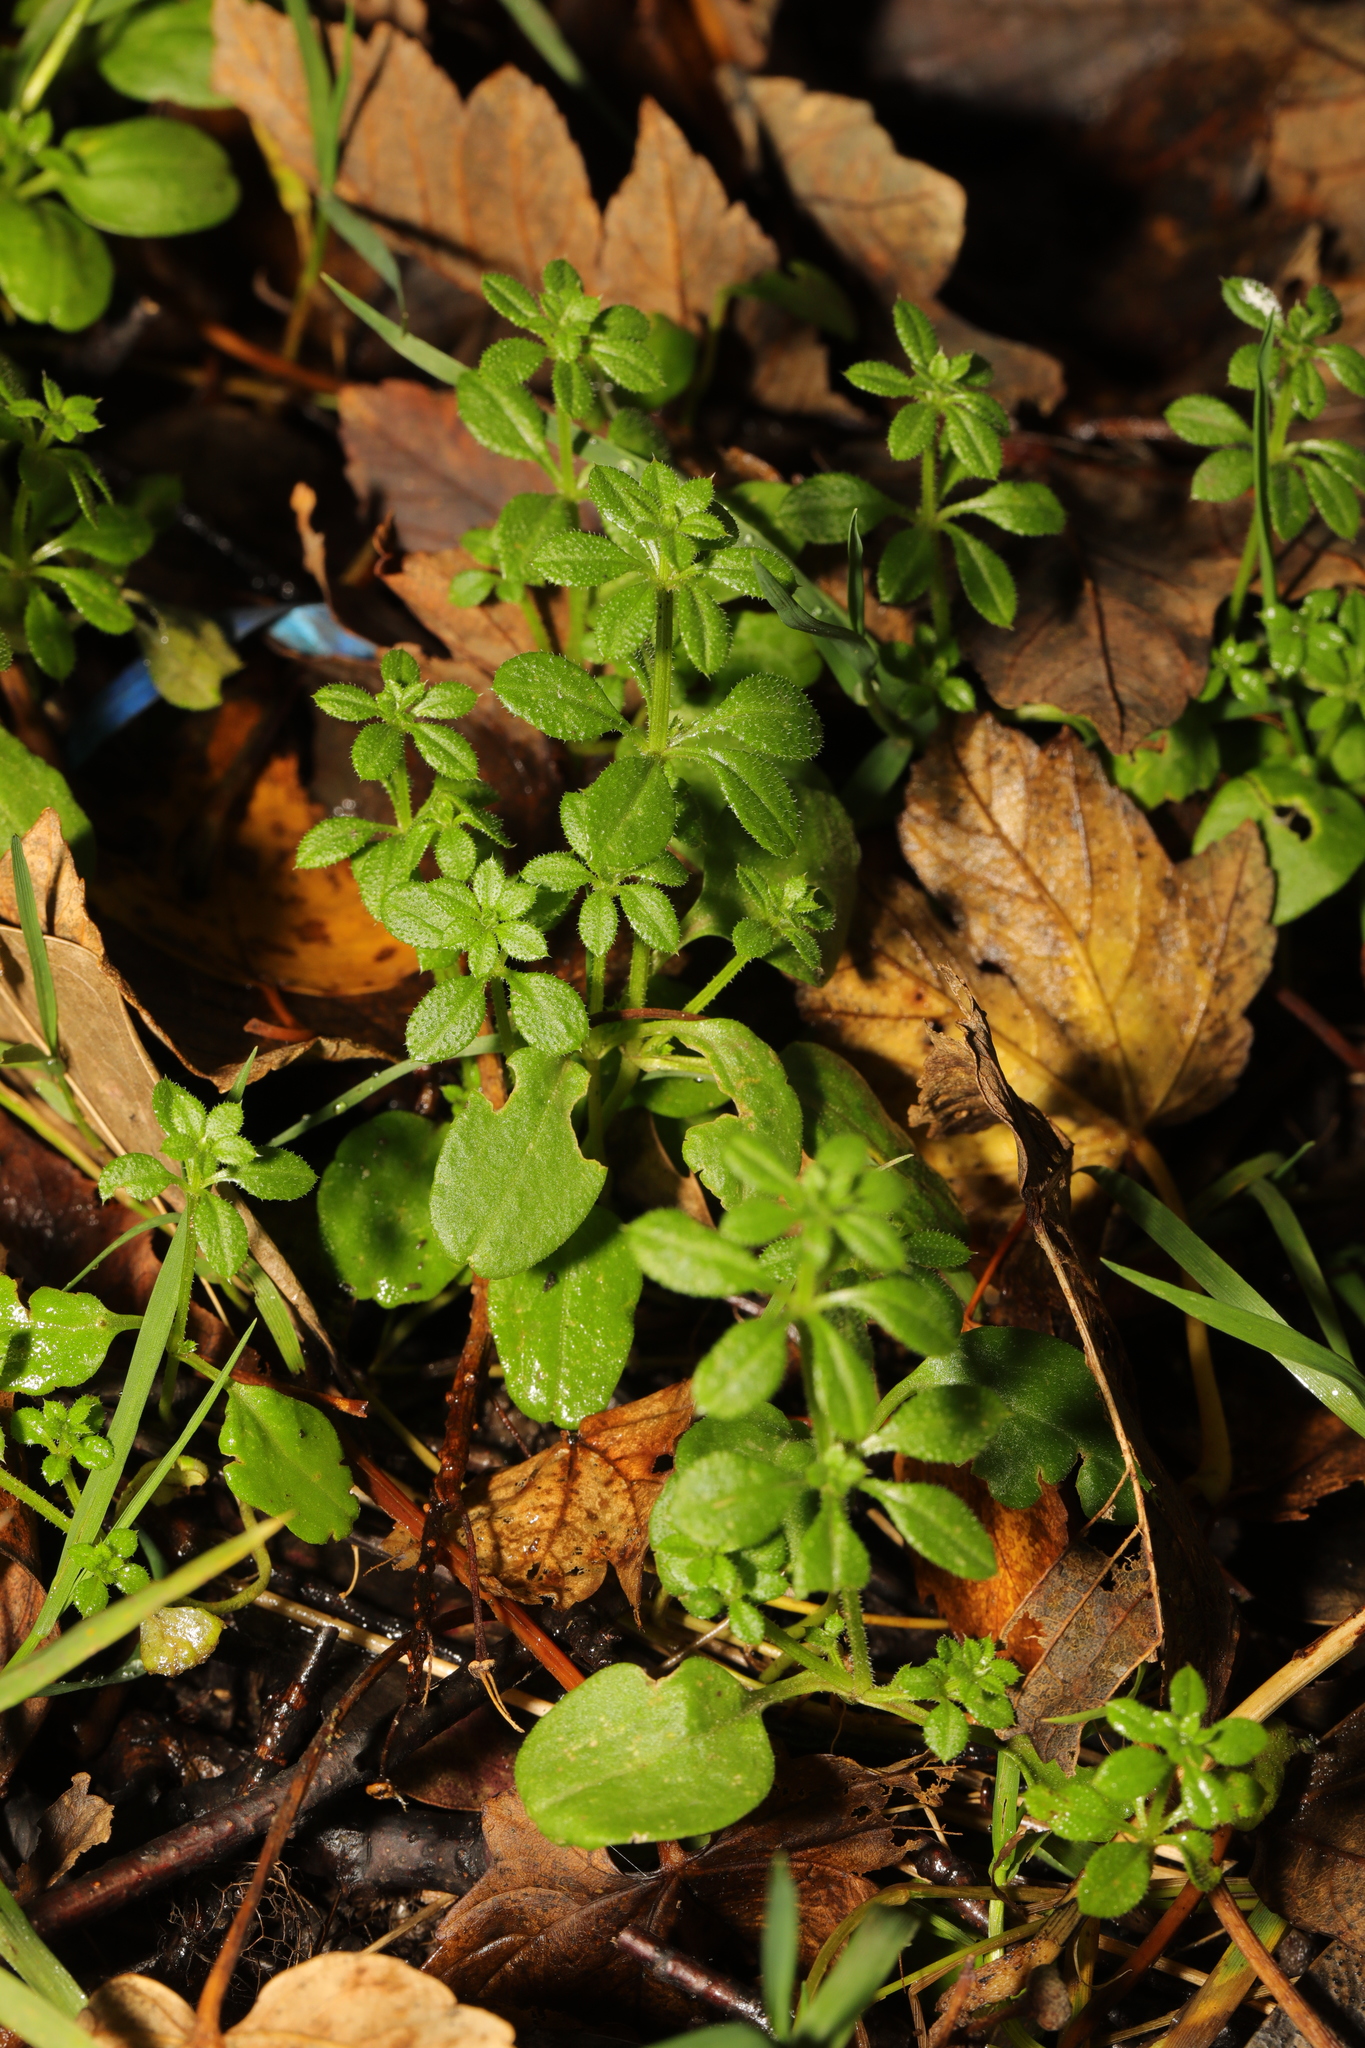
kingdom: Plantae
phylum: Tracheophyta
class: Magnoliopsida
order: Gentianales
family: Rubiaceae
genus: Galium
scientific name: Galium aparine
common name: Cleavers
